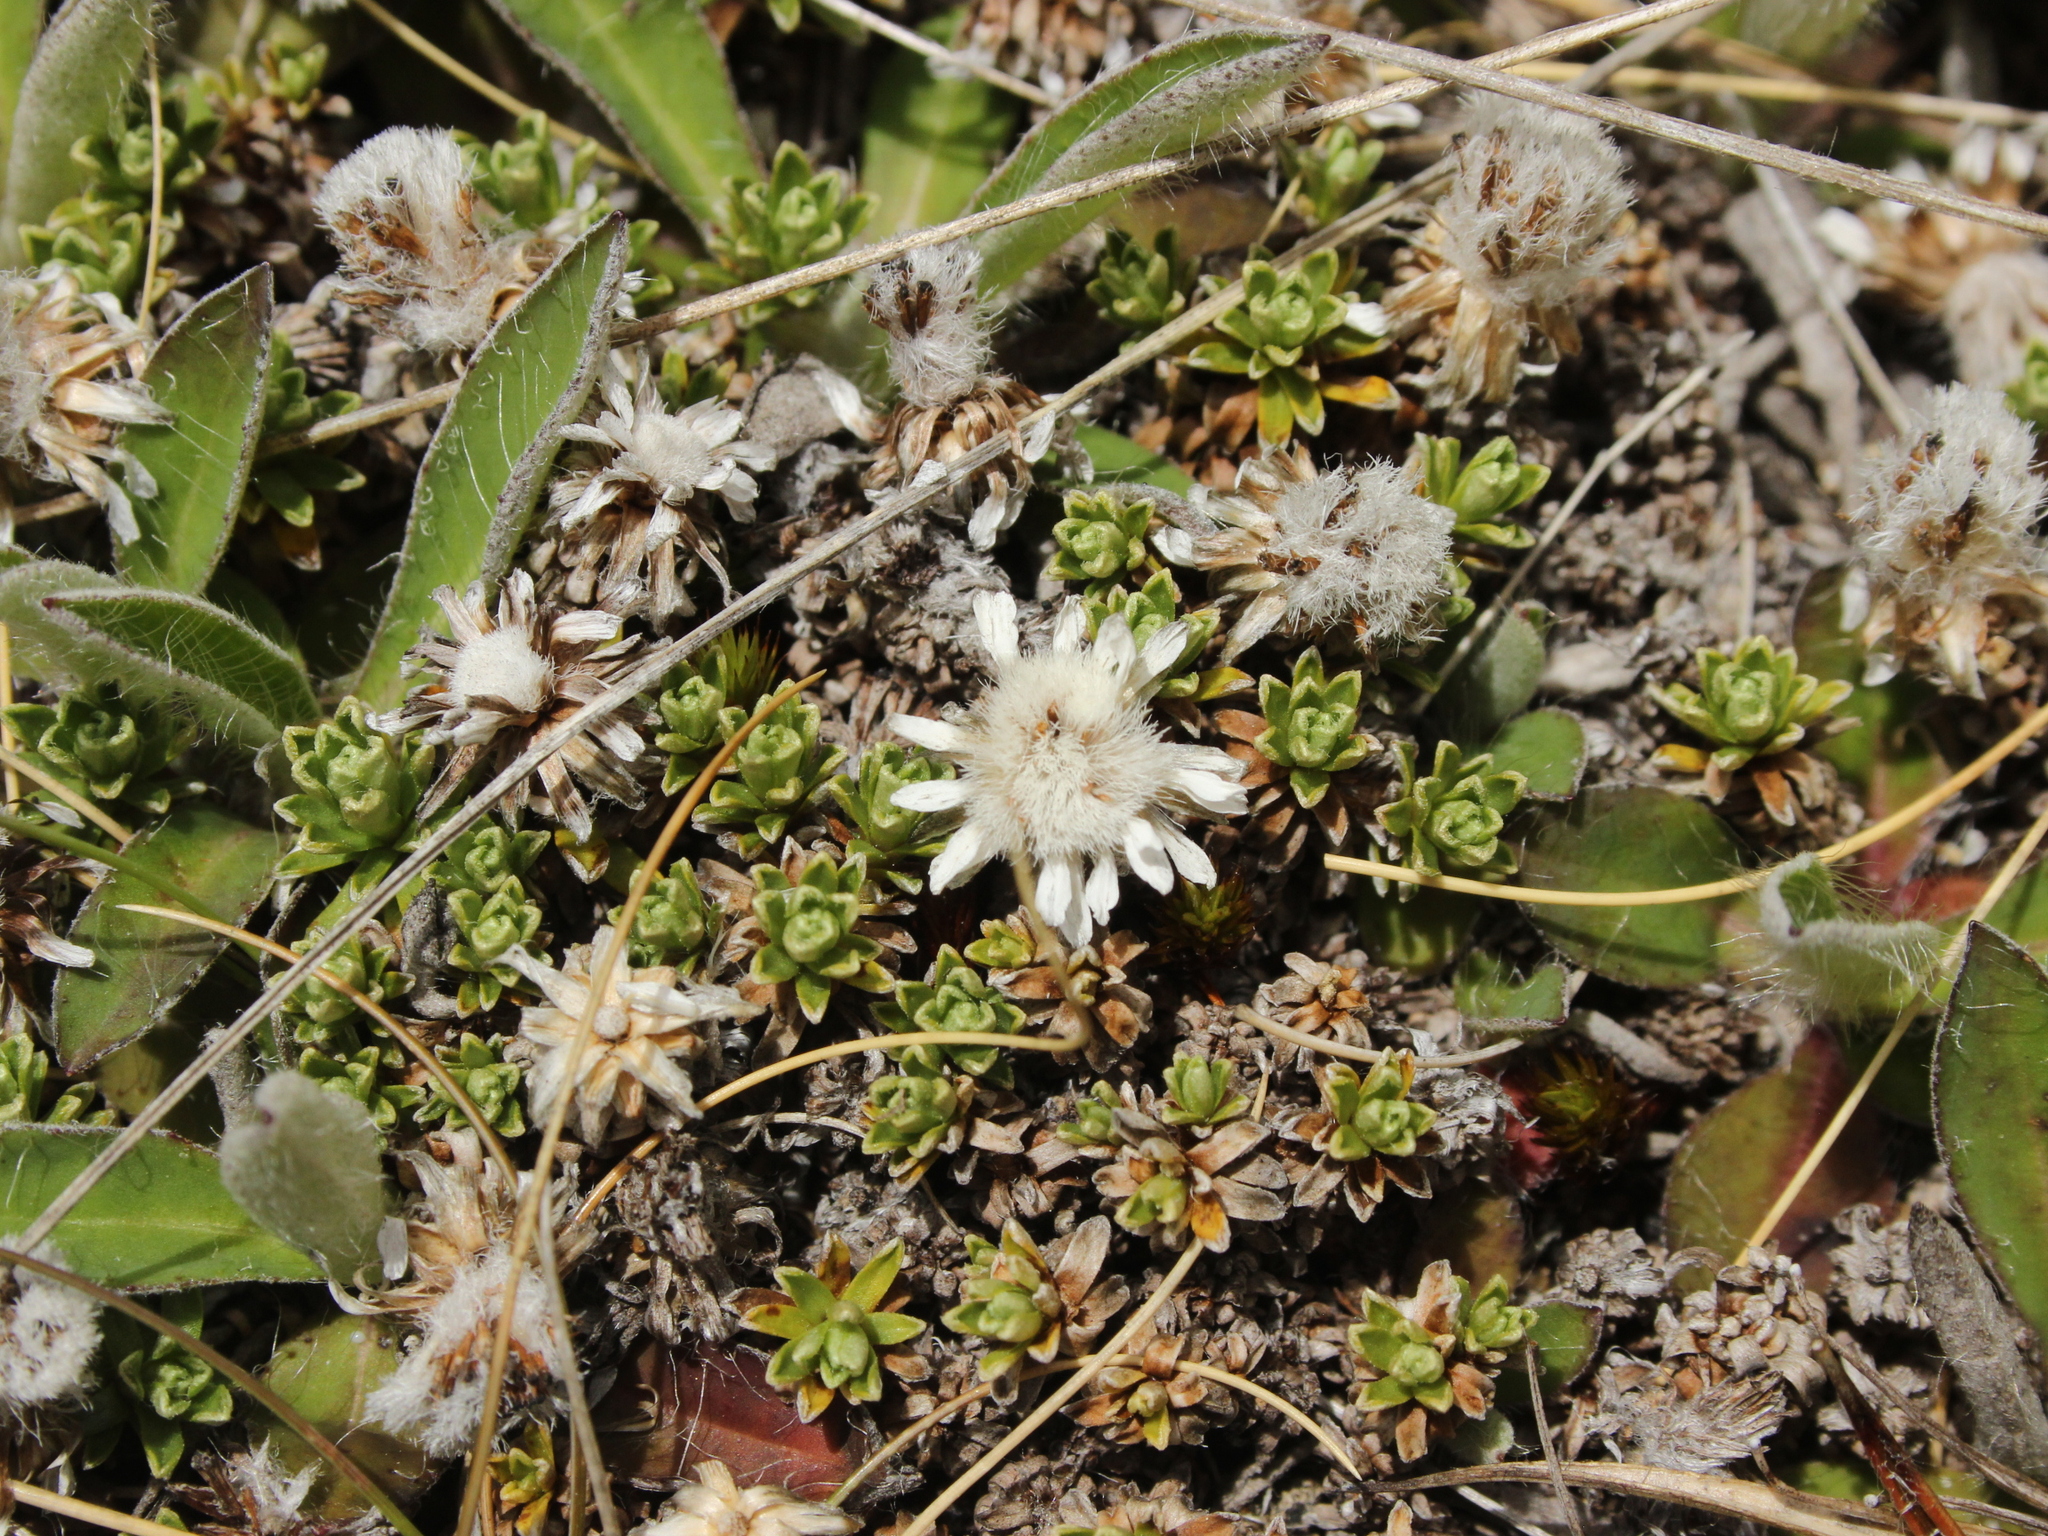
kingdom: Plantae
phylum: Tracheophyta
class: Magnoliopsida
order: Asterales
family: Asteraceae
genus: Raoulia
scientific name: Raoulia subsericea
